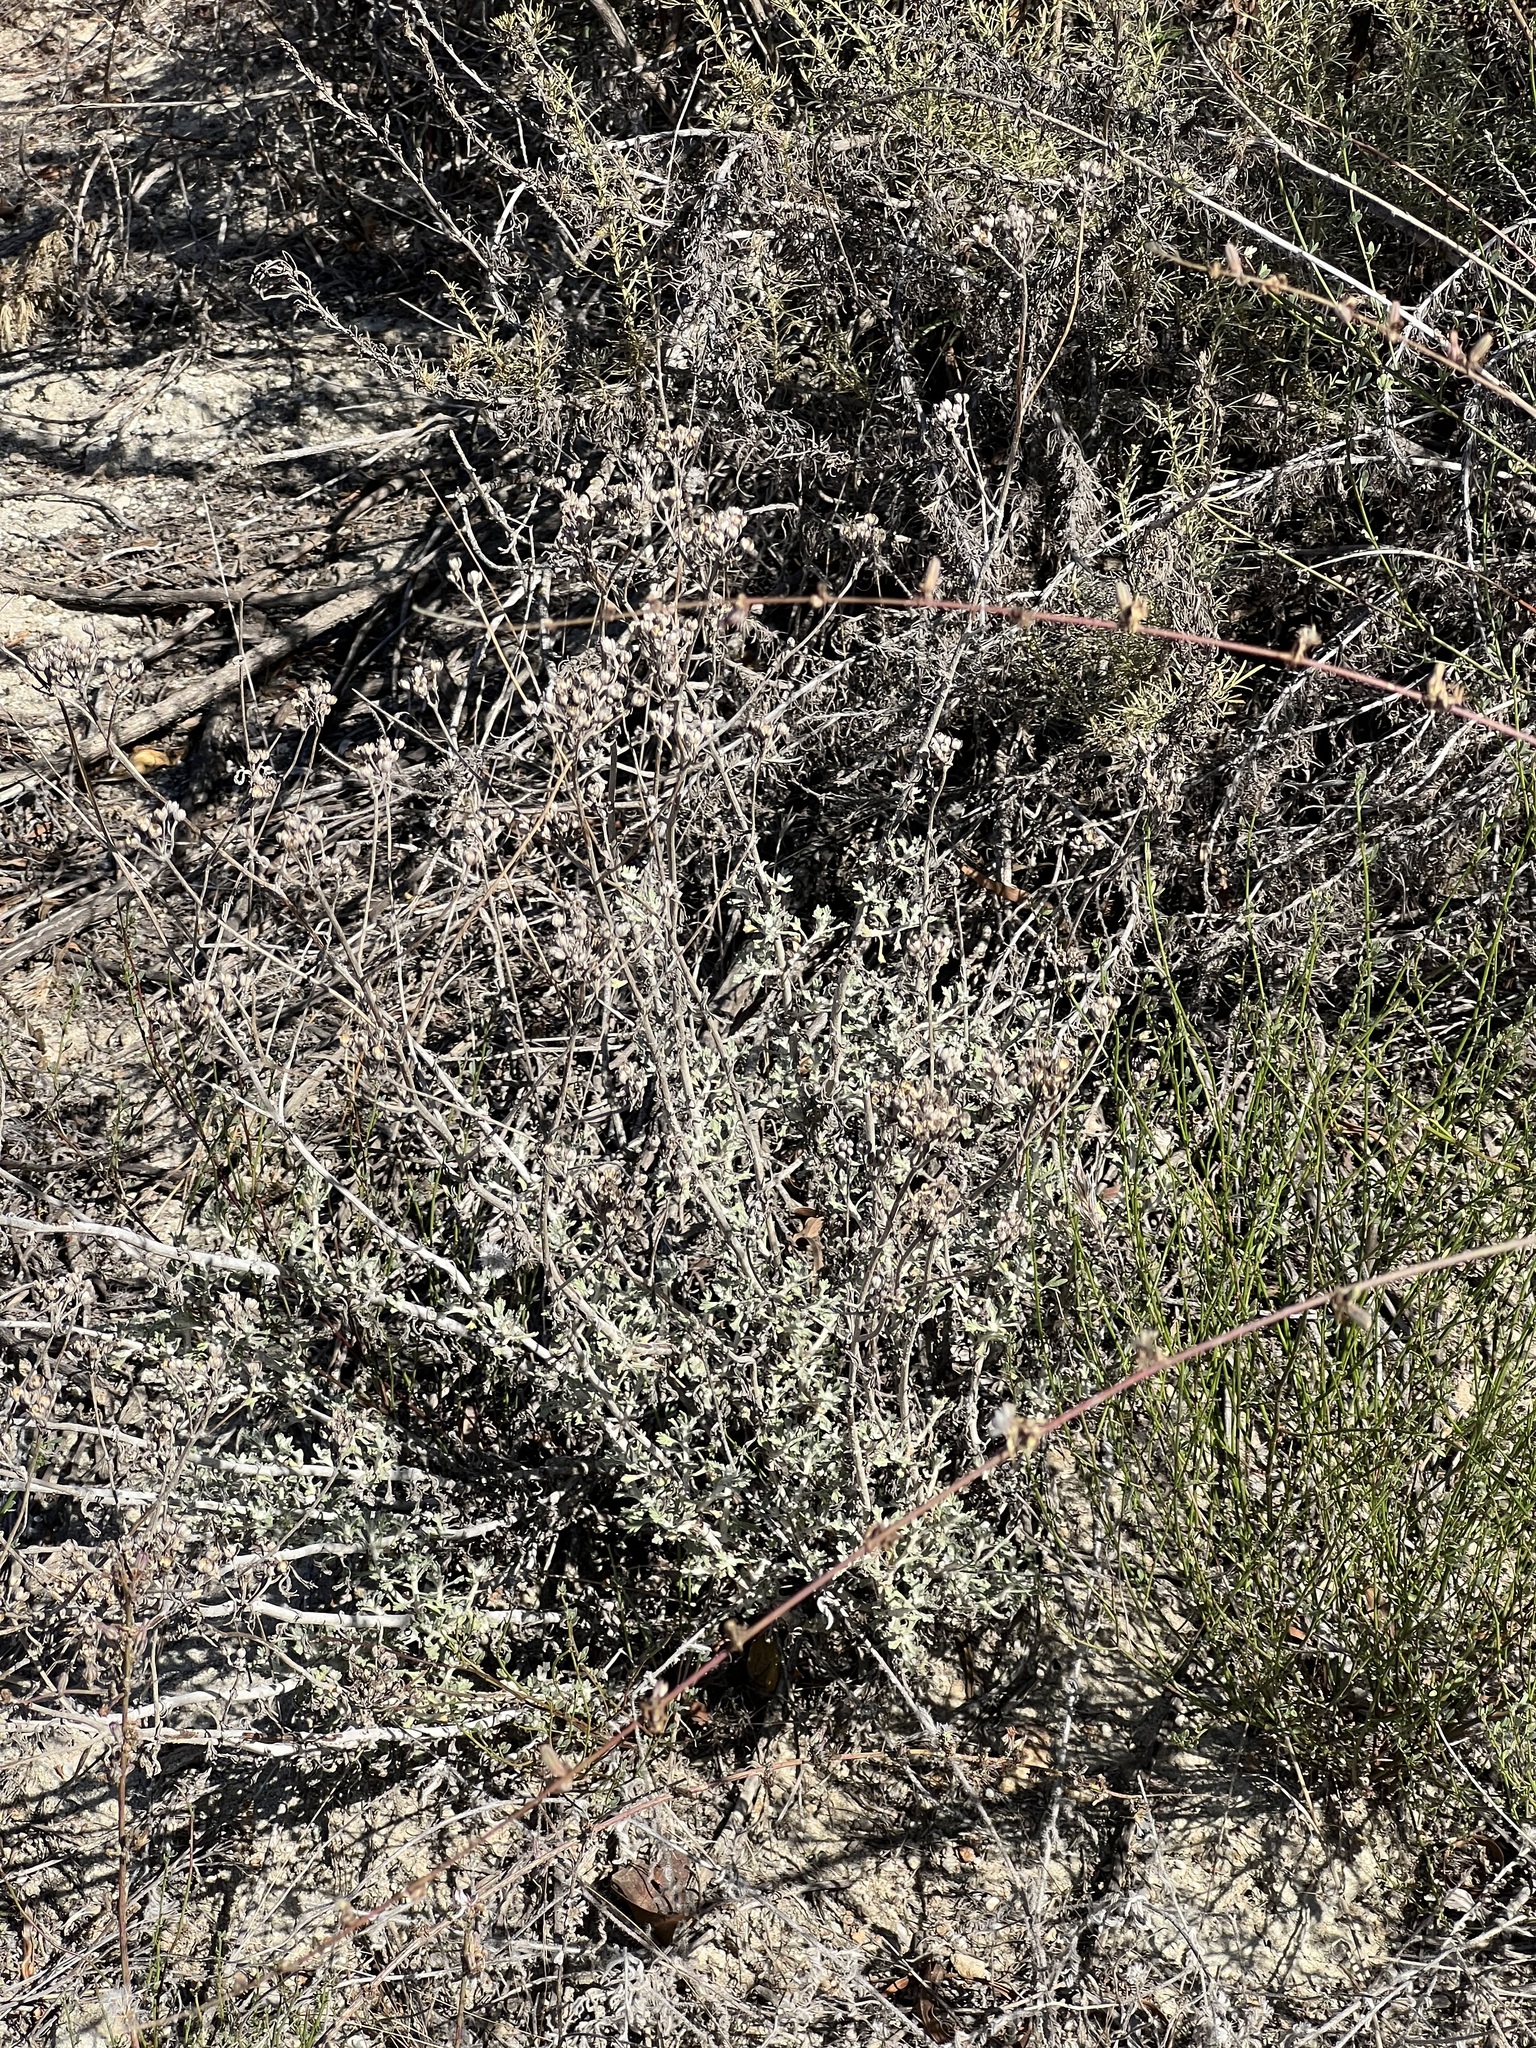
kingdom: Plantae
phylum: Tracheophyta
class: Magnoliopsida
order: Asterales
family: Asteraceae
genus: Eriophyllum
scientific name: Eriophyllum confertiflorum
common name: Golden-yarrow
